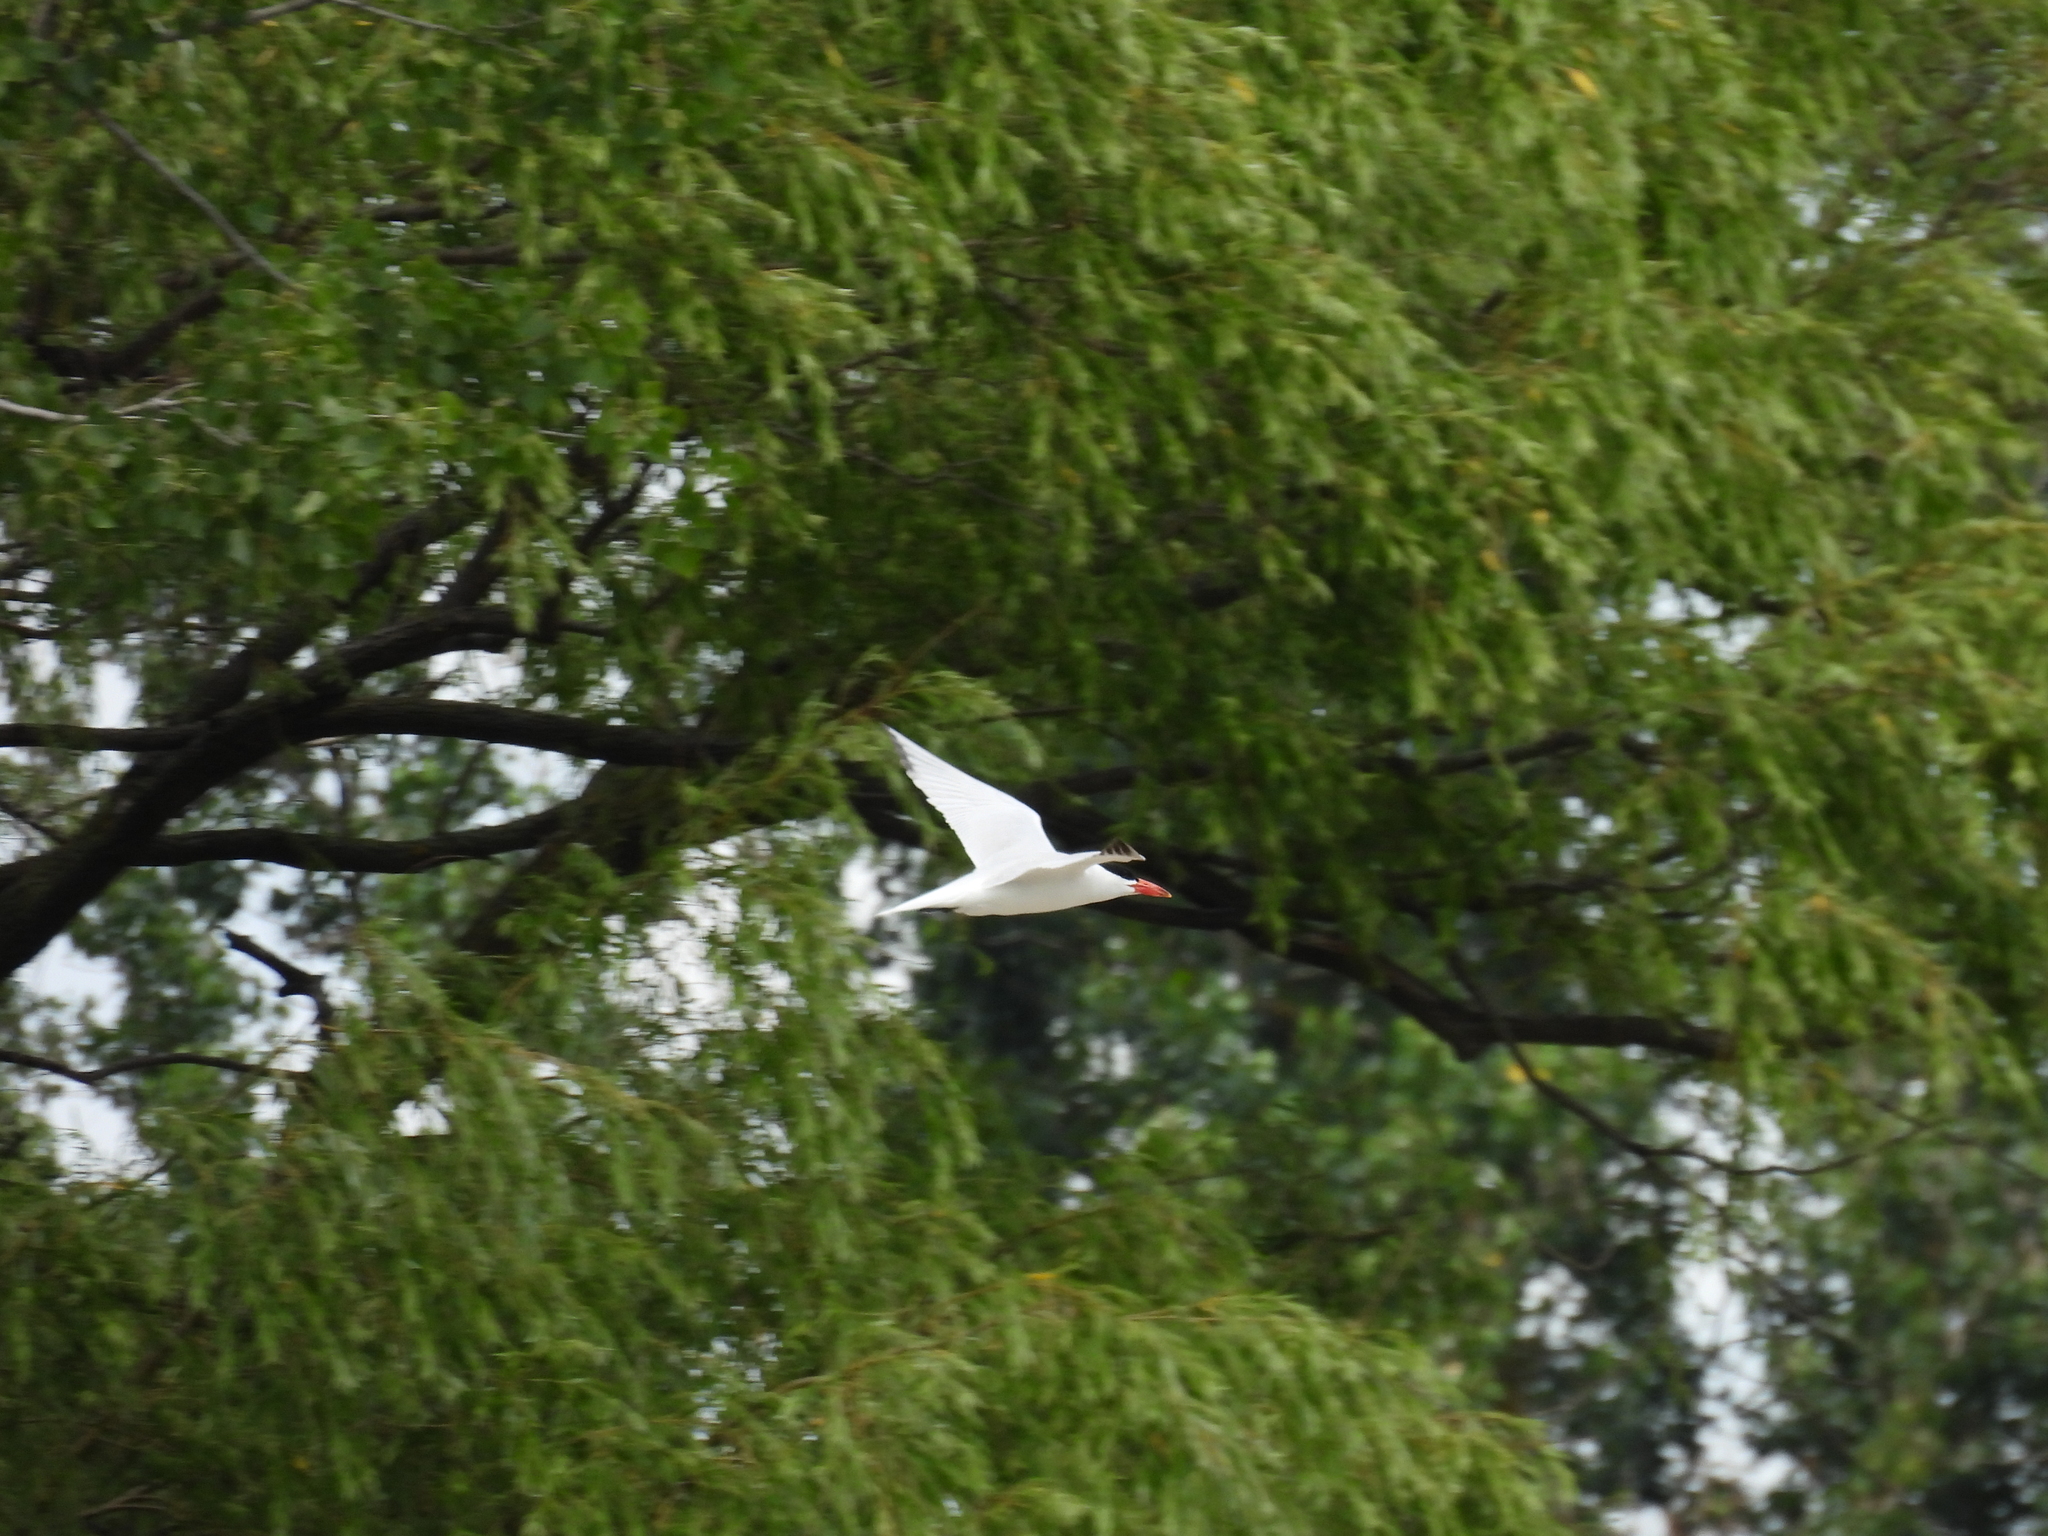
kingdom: Animalia
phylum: Chordata
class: Aves
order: Charadriiformes
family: Laridae
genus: Hydroprogne
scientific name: Hydroprogne caspia
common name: Caspian tern
